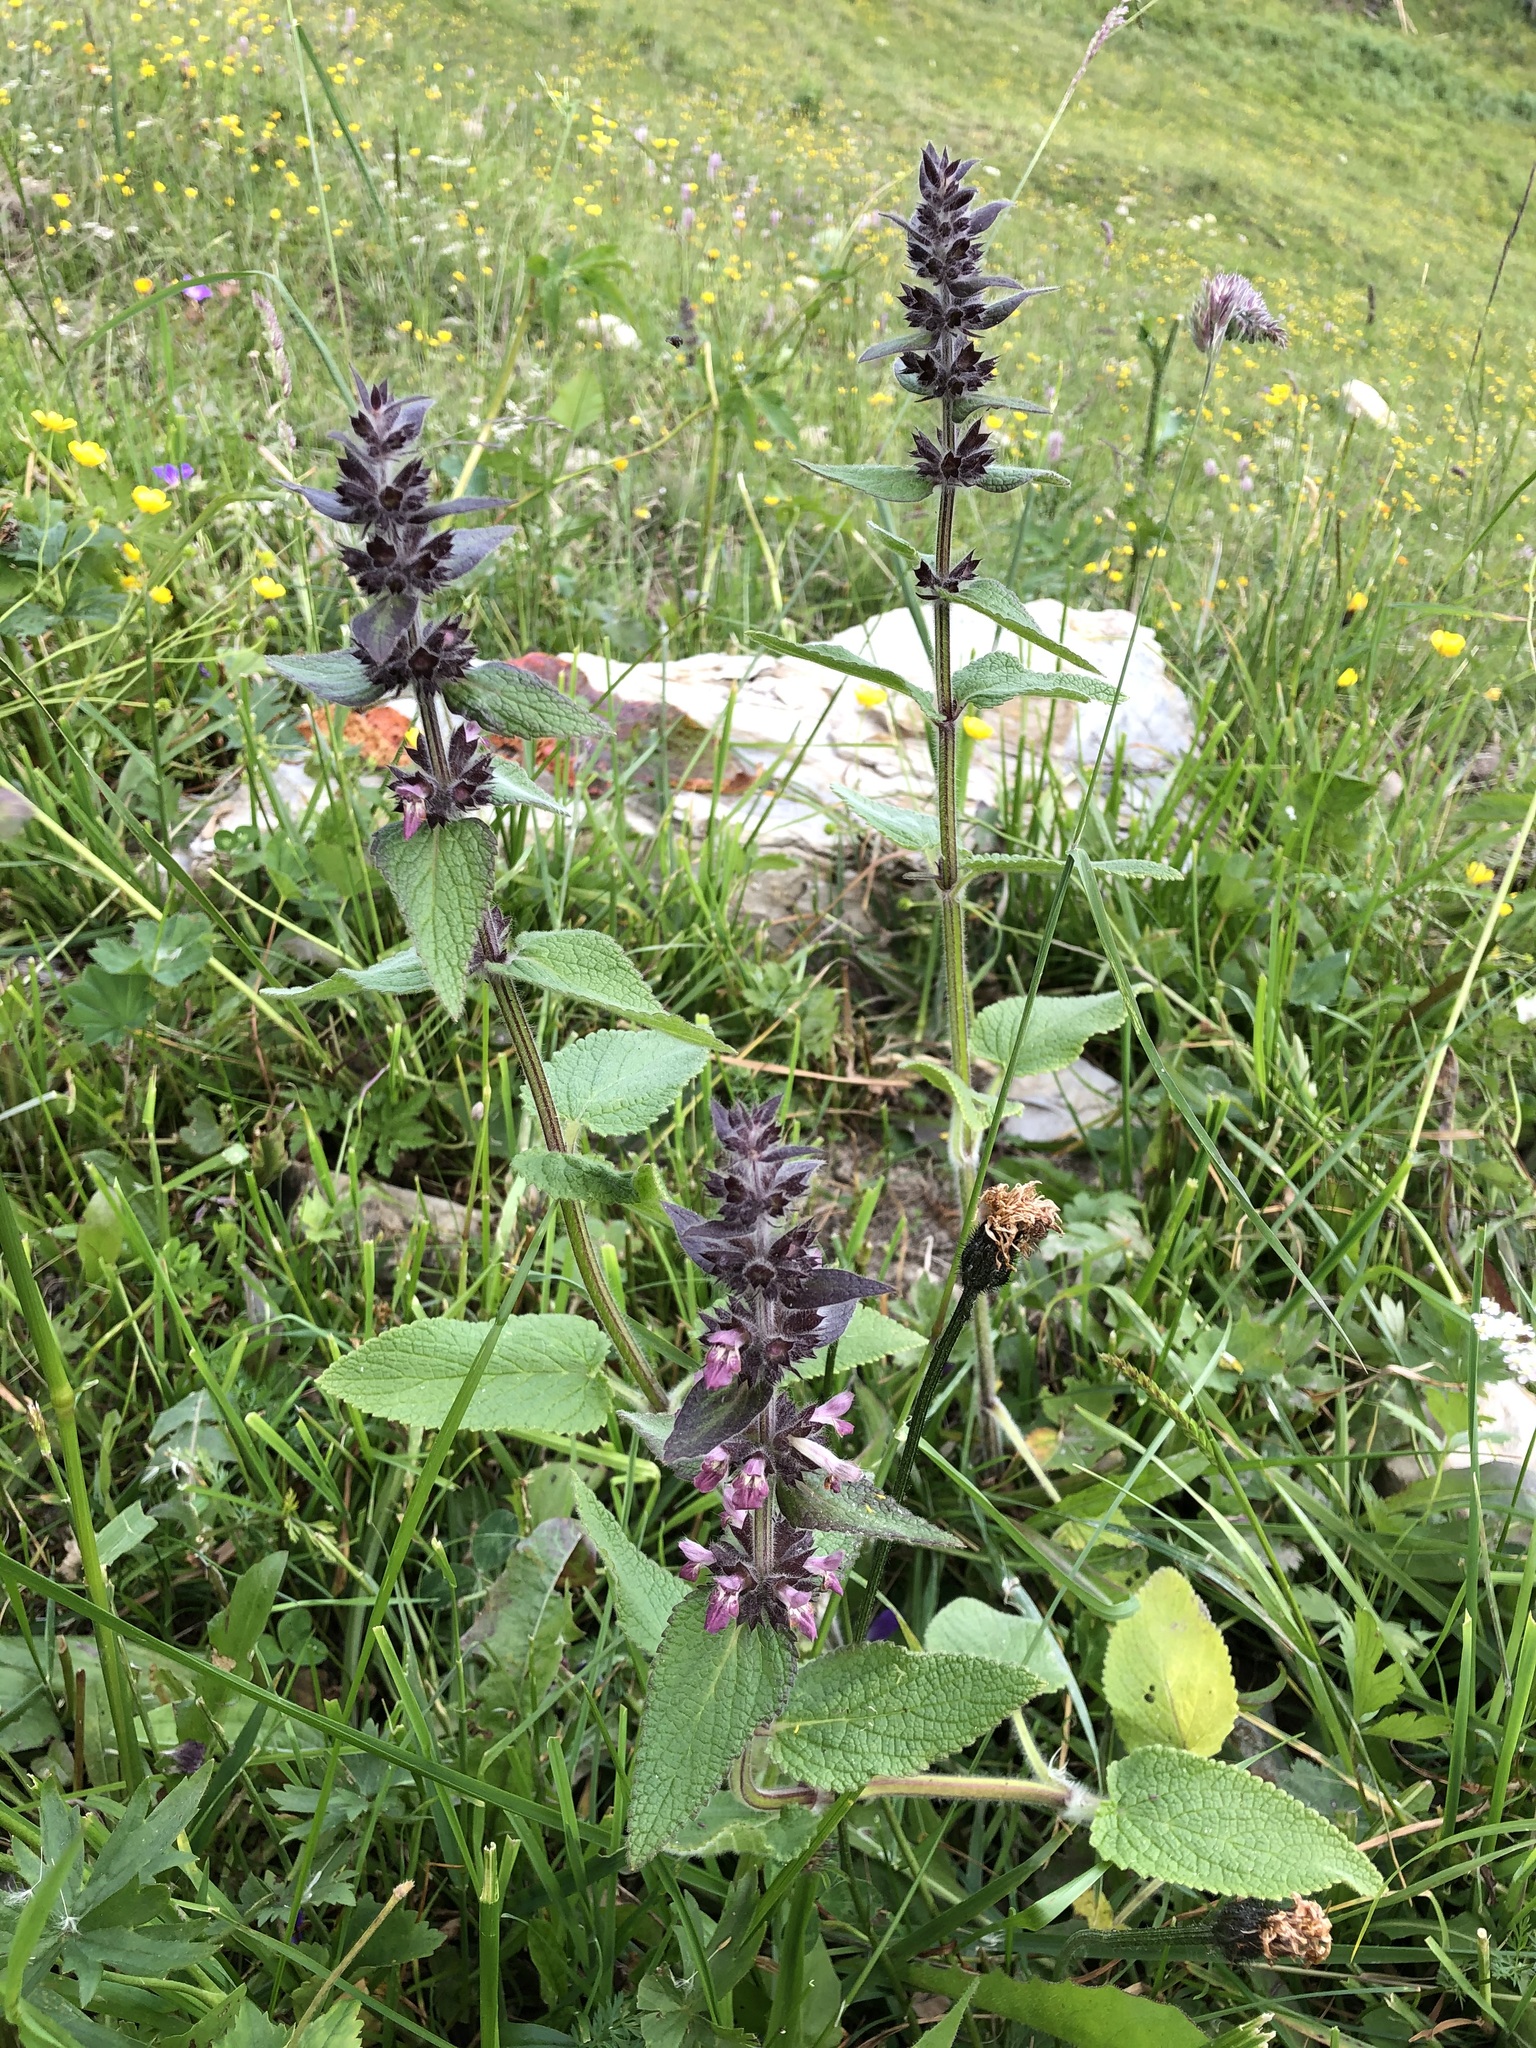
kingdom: Plantae
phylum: Tracheophyta
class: Magnoliopsida
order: Lamiales
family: Lamiaceae
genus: Stachys
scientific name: Stachys alpina
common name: Limestone woundwort
